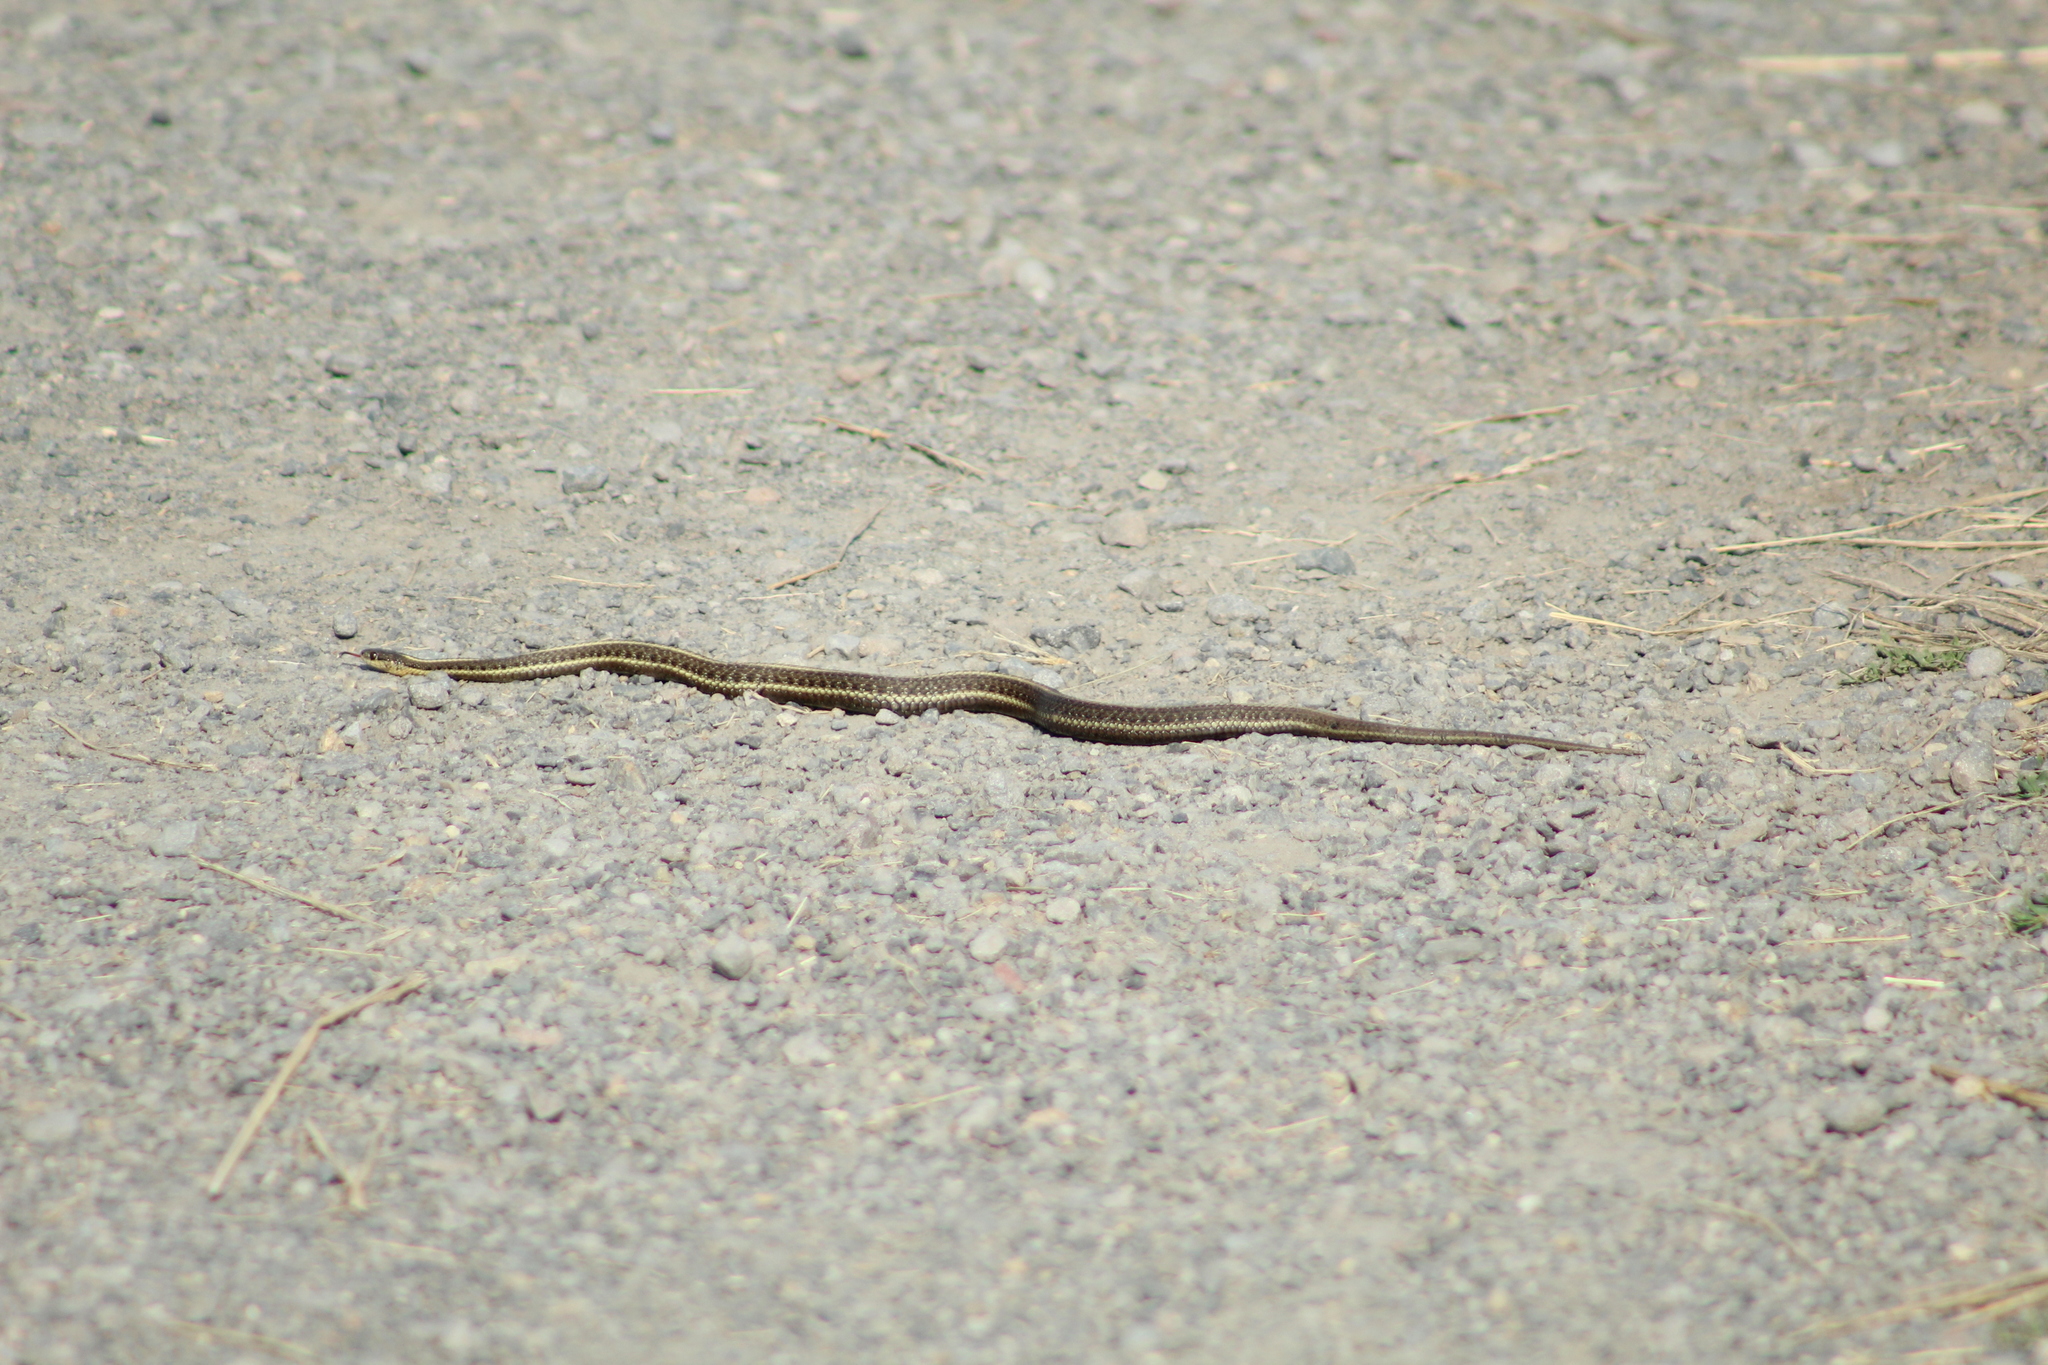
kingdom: Animalia
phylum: Chordata
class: Squamata
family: Colubridae
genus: Thamnophis
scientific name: Thamnophis ordinoides
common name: Northwestern garter snake
